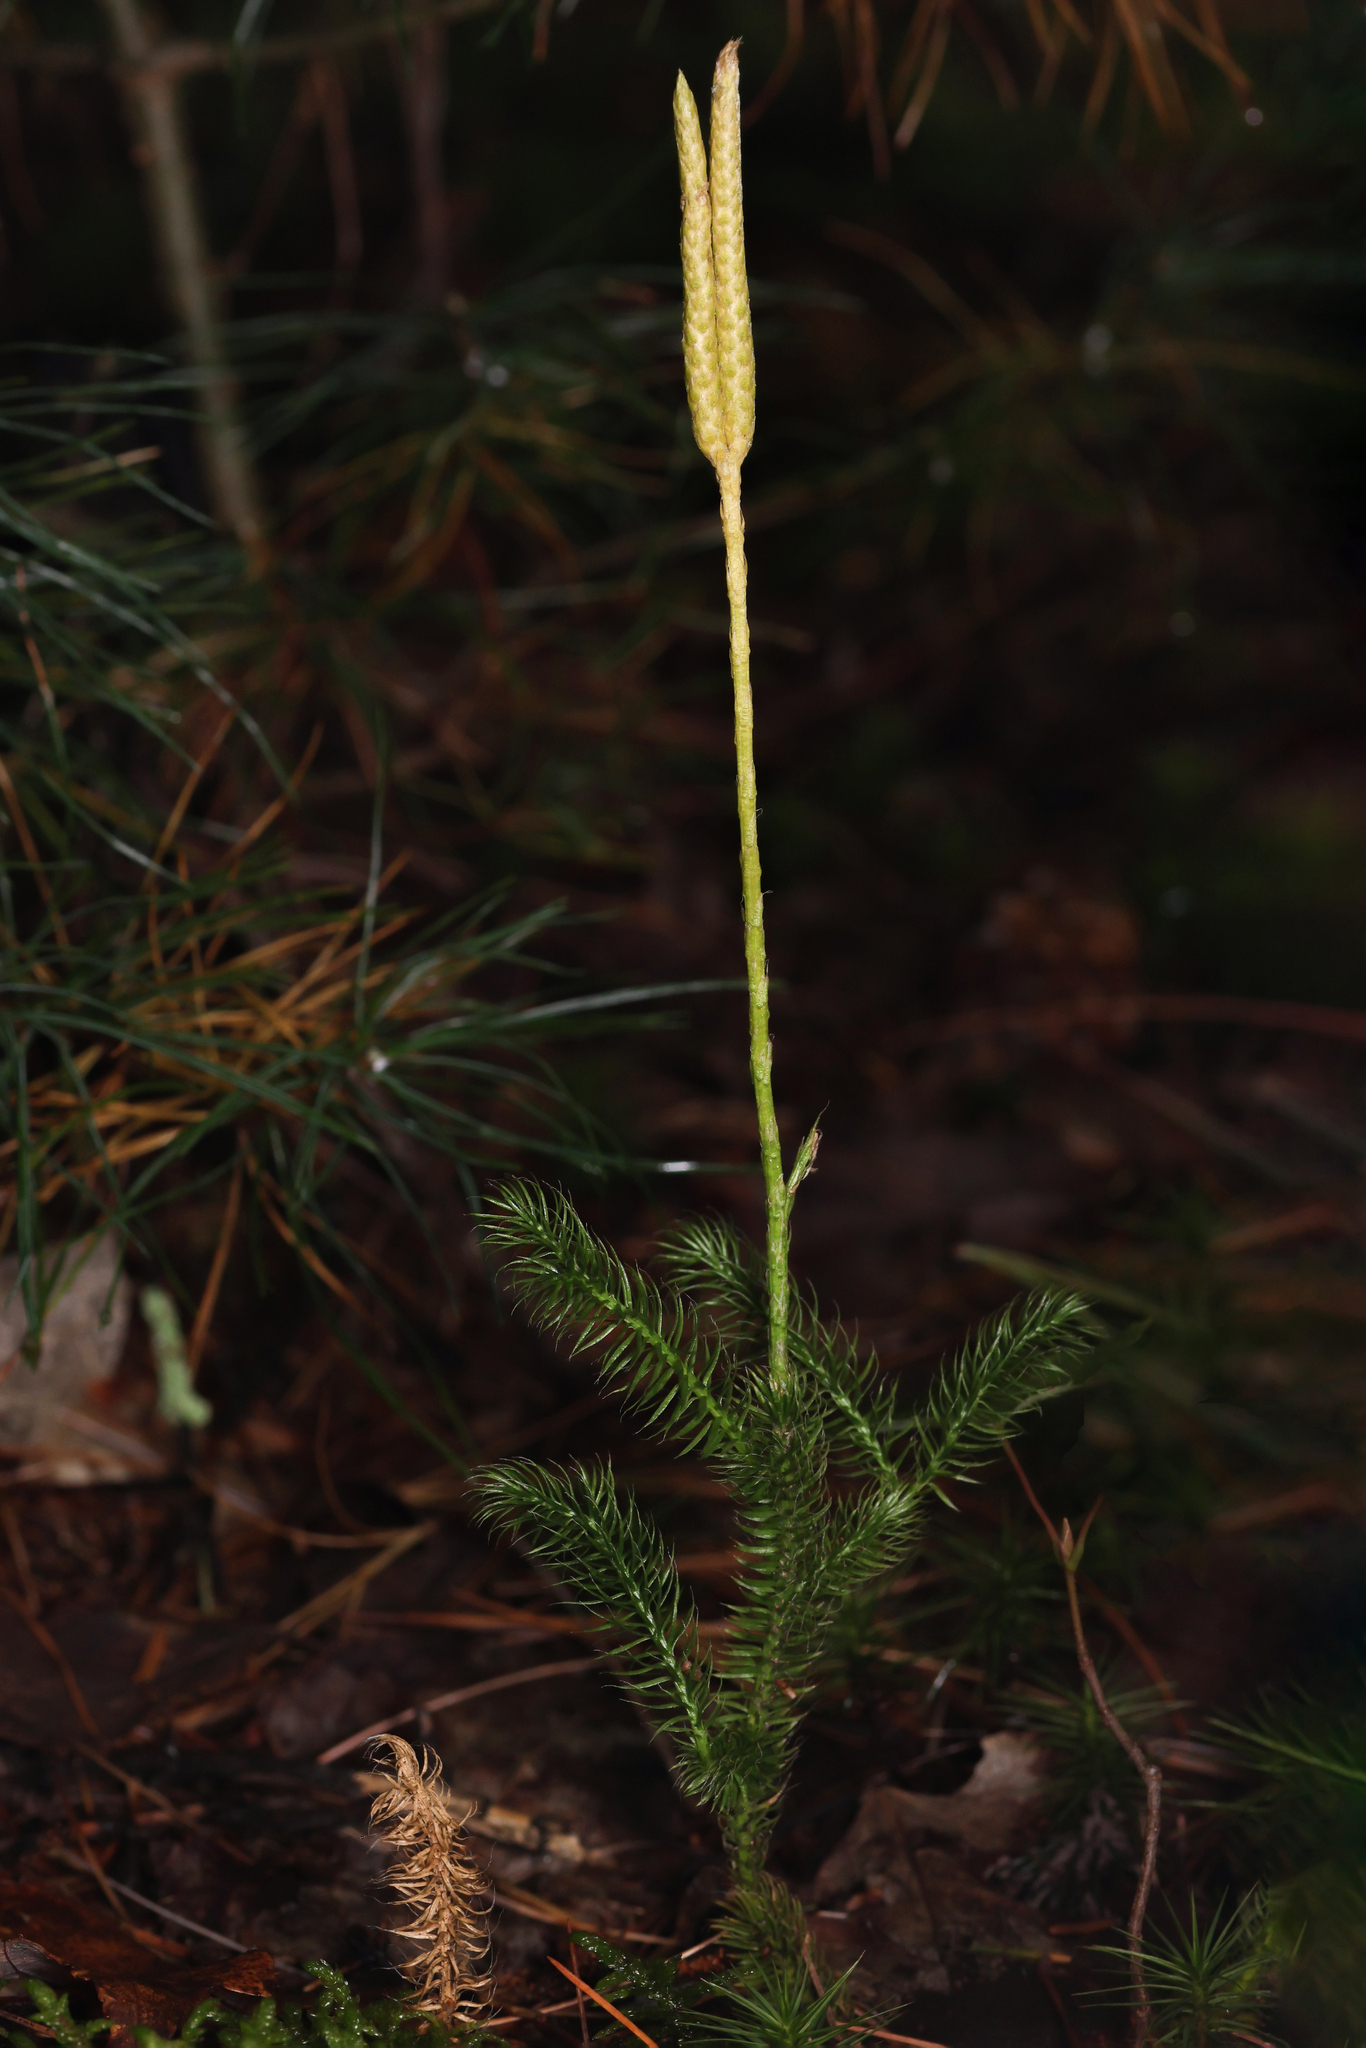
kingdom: Plantae
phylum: Tracheophyta
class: Lycopodiopsida
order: Lycopodiales
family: Lycopodiaceae
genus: Lycopodium
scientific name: Lycopodium clavatum
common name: Stag's-horn clubmoss
